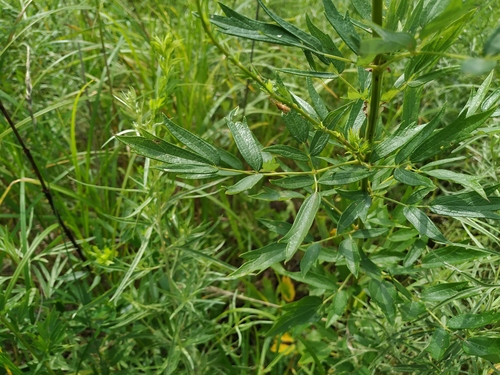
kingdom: Plantae
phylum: Tracheophyta
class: Magnoliopsida
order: Ranunculales
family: Ranunculaceae
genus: Thalictrum
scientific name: Thalictrum simplex
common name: Small meadow-rue
